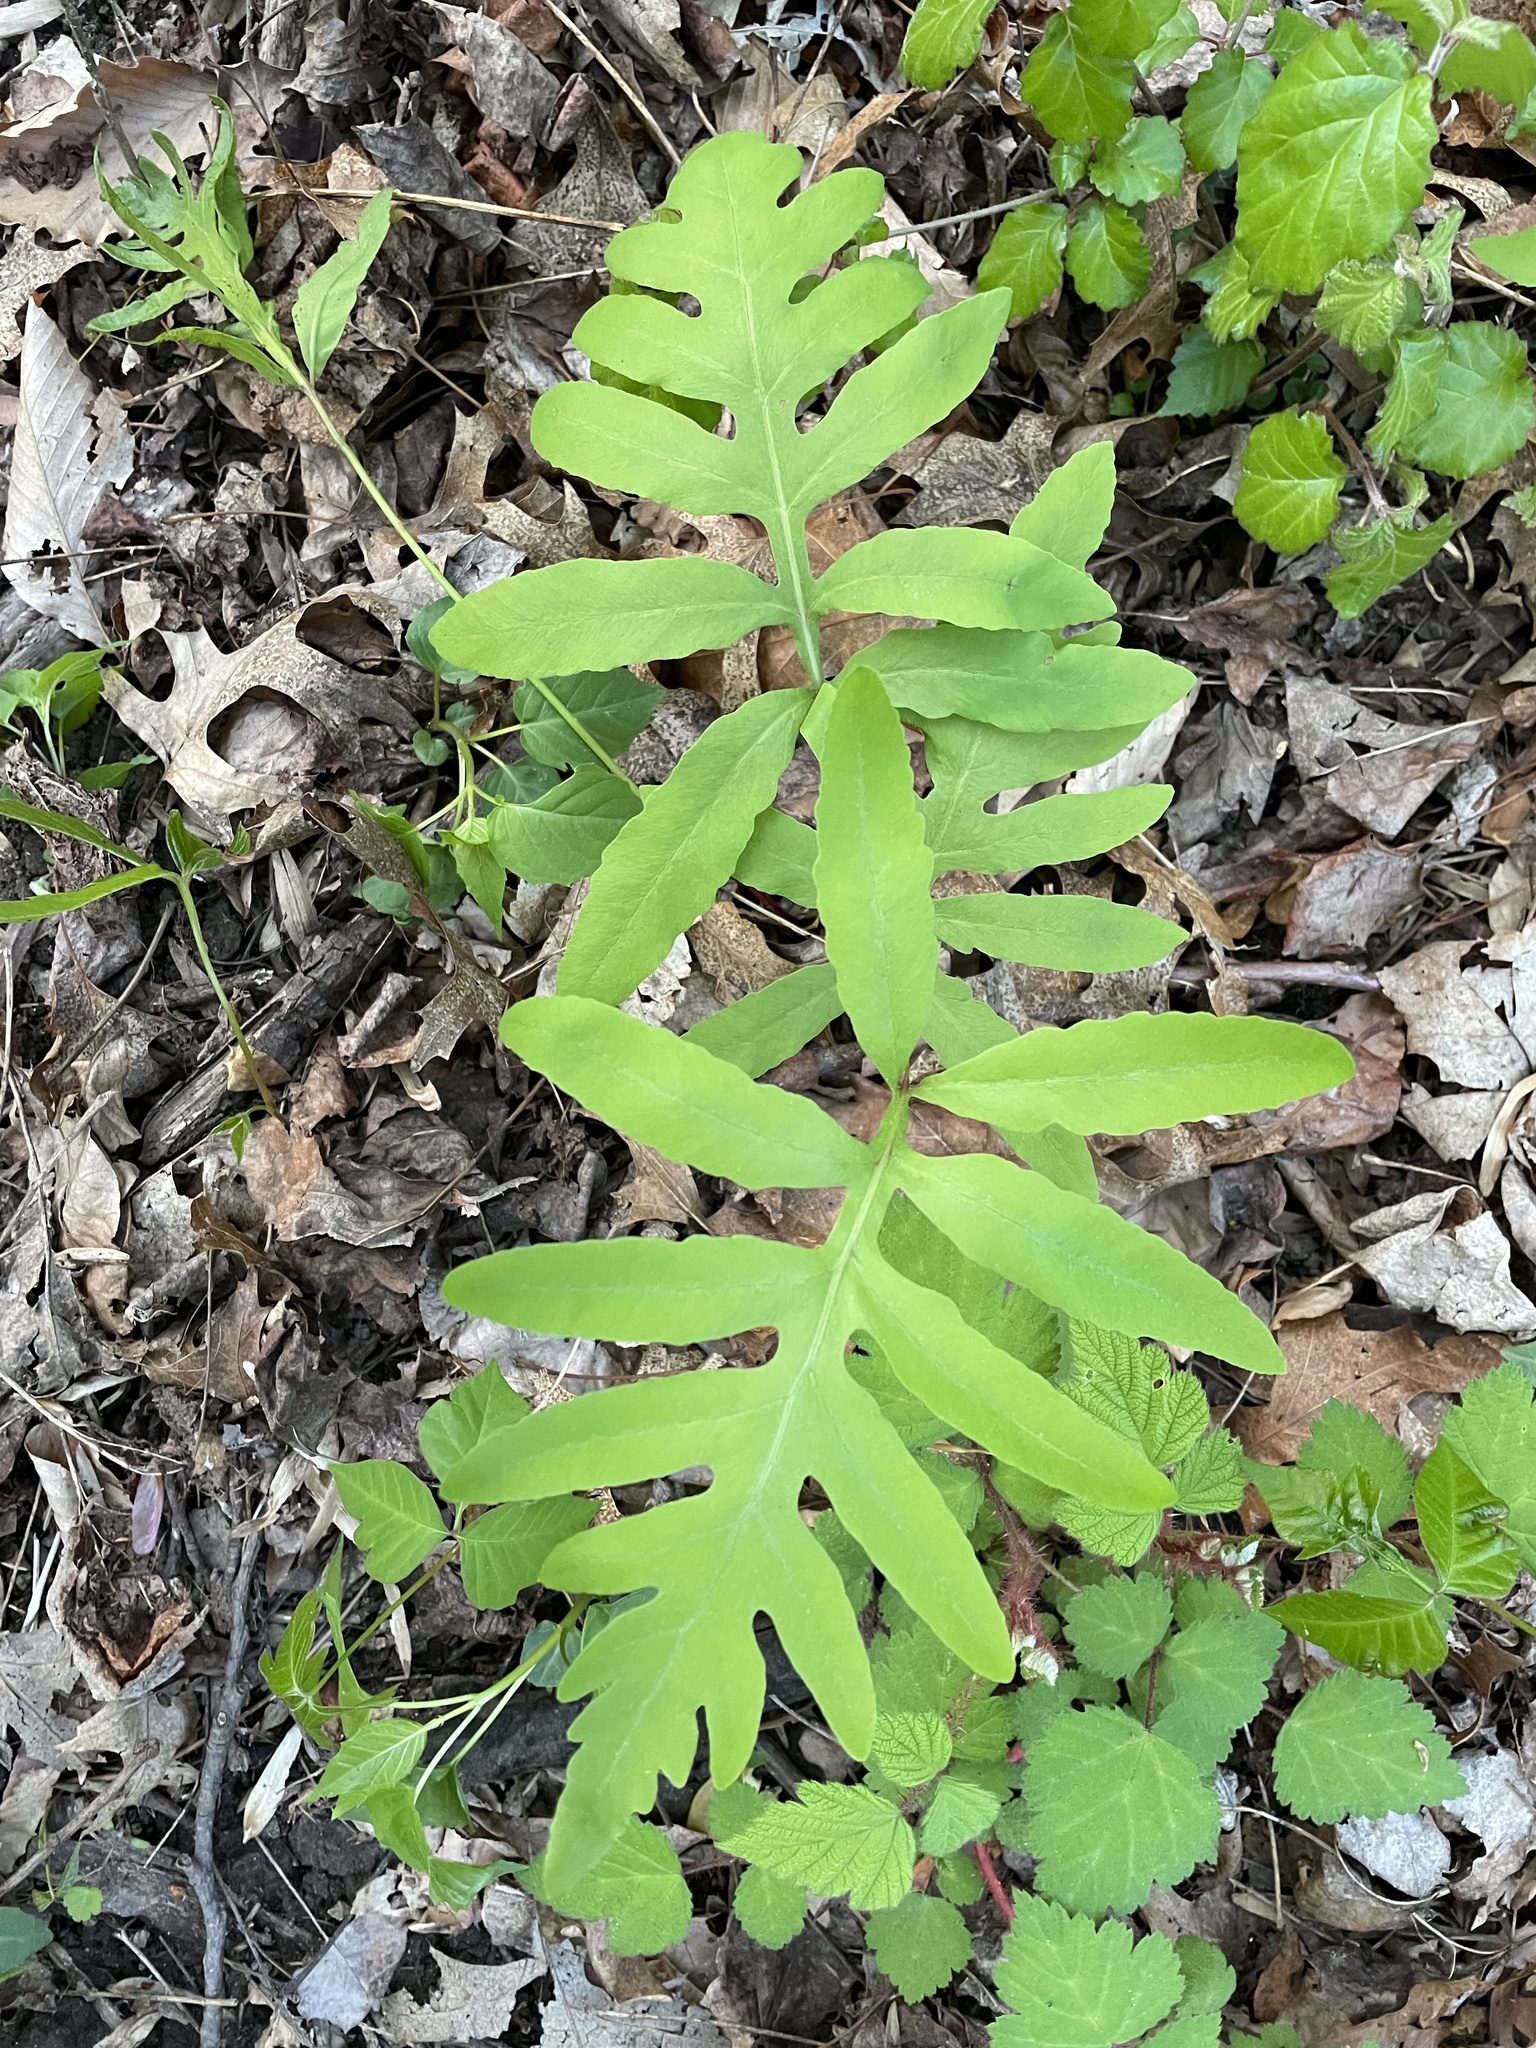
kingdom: Plantae
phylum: Tracheophyta
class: Polypodiopsida
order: Polypodiales
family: Onocleaceae
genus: Onoclea
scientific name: Onoclea sensibilis
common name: Sensitive fern
